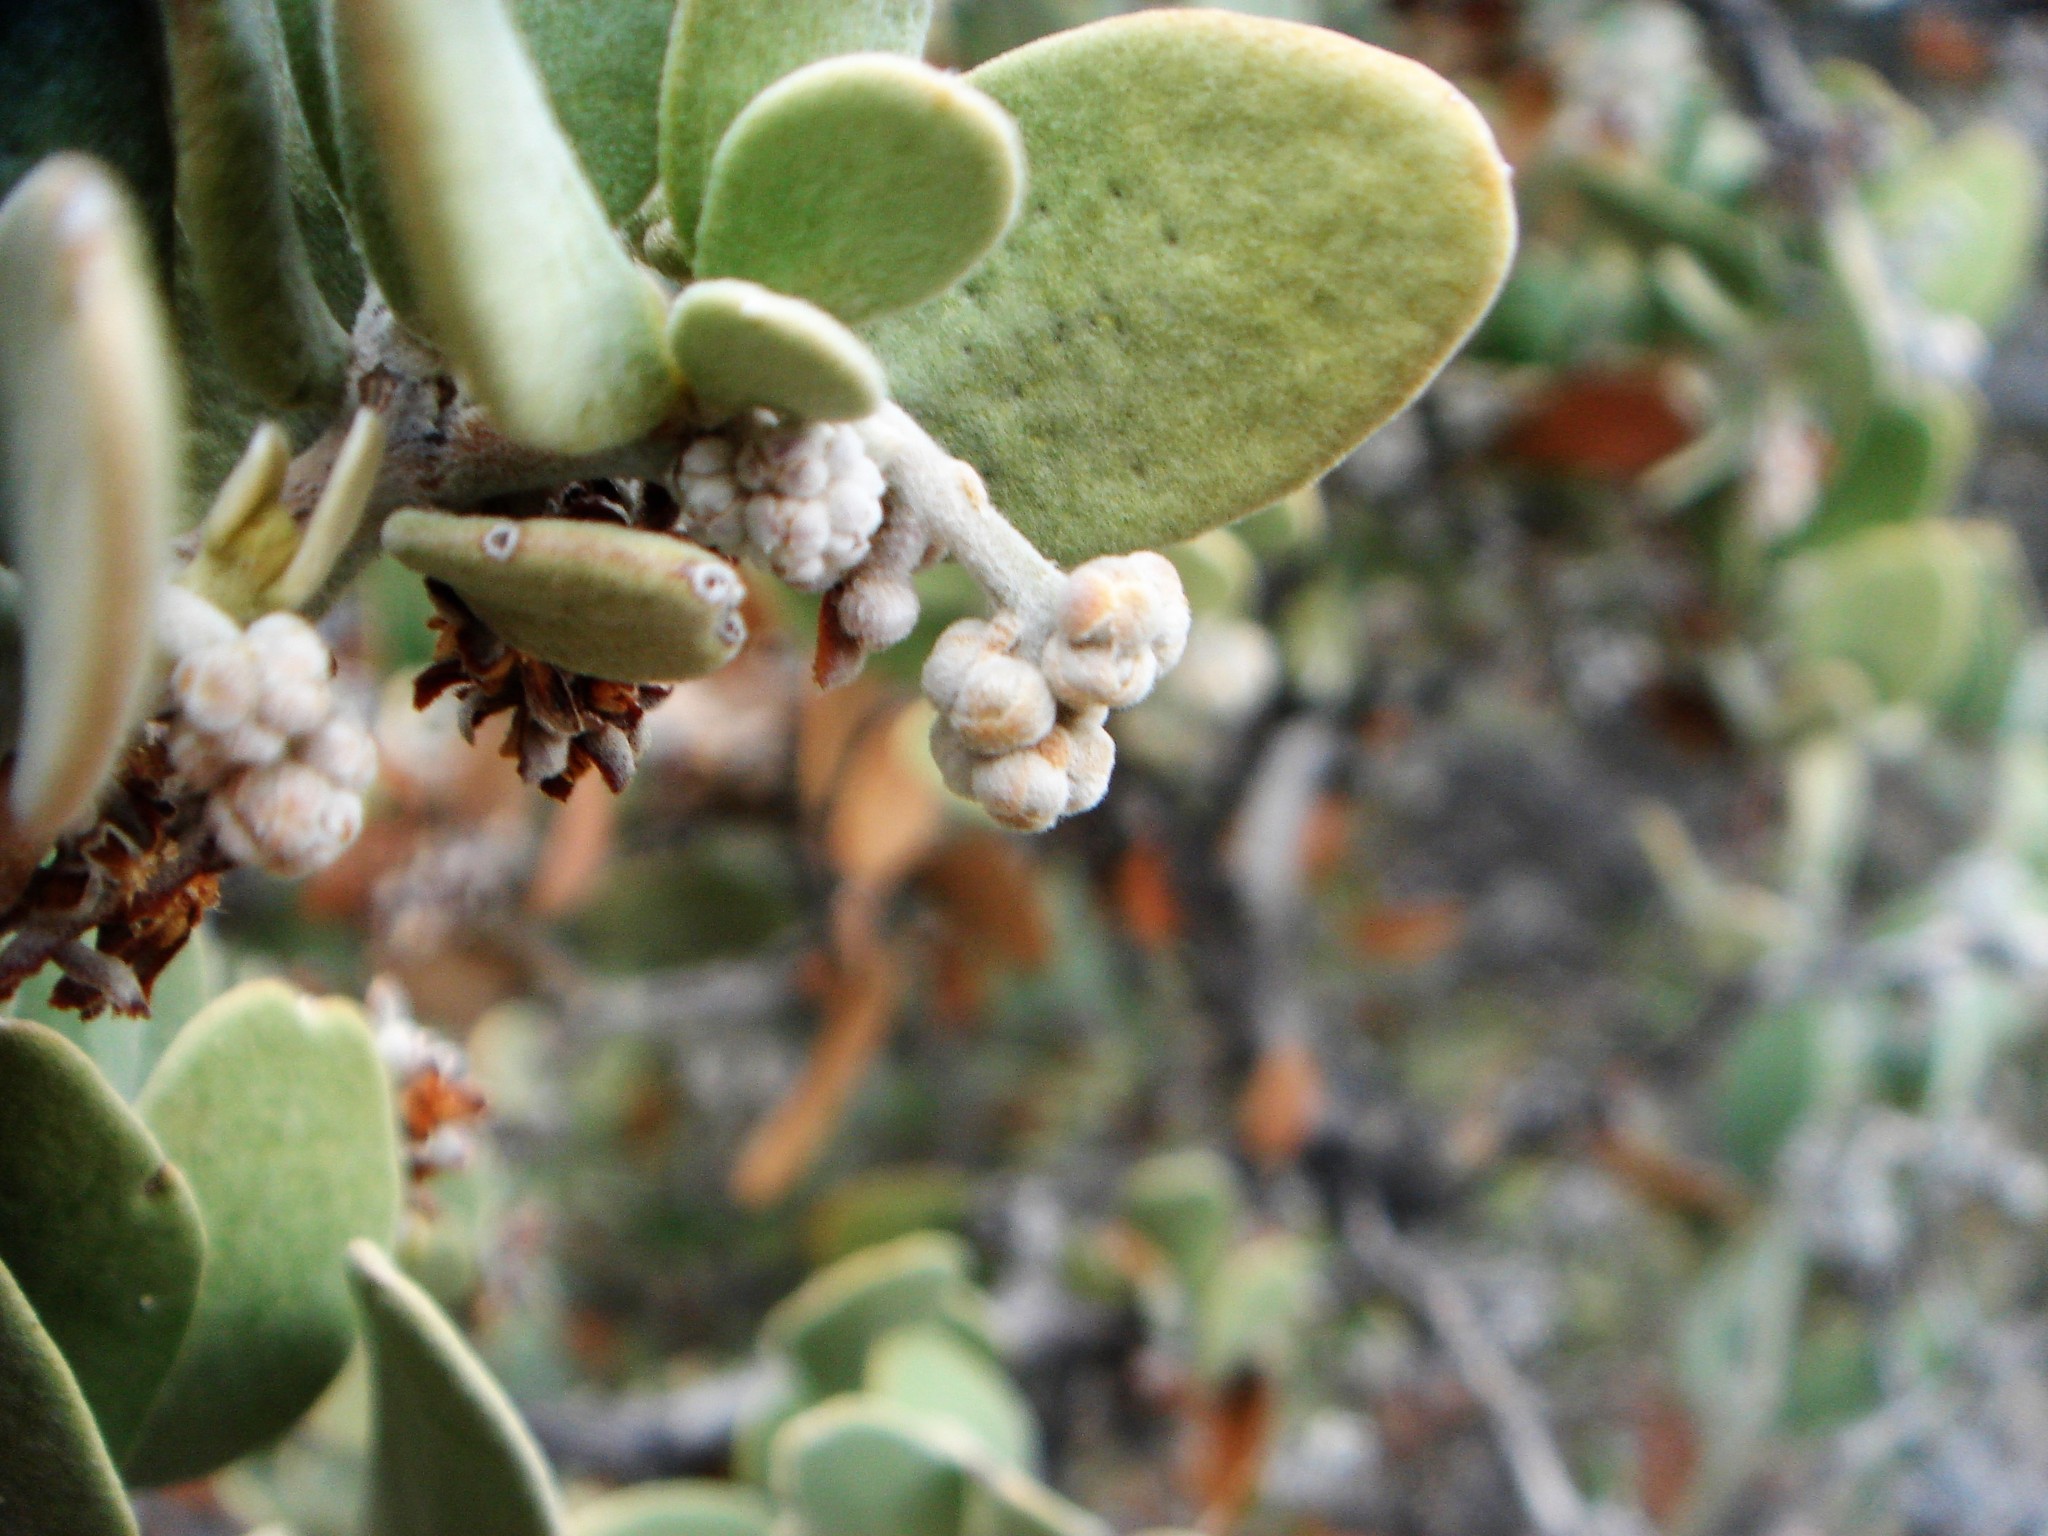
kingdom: Plantae
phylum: Tracheophyta
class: Magnoliopsida
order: Caryophyllales
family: Simmondsiaceae
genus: Simmondsia
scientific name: Simmondsia chinensis
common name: Jojoba
